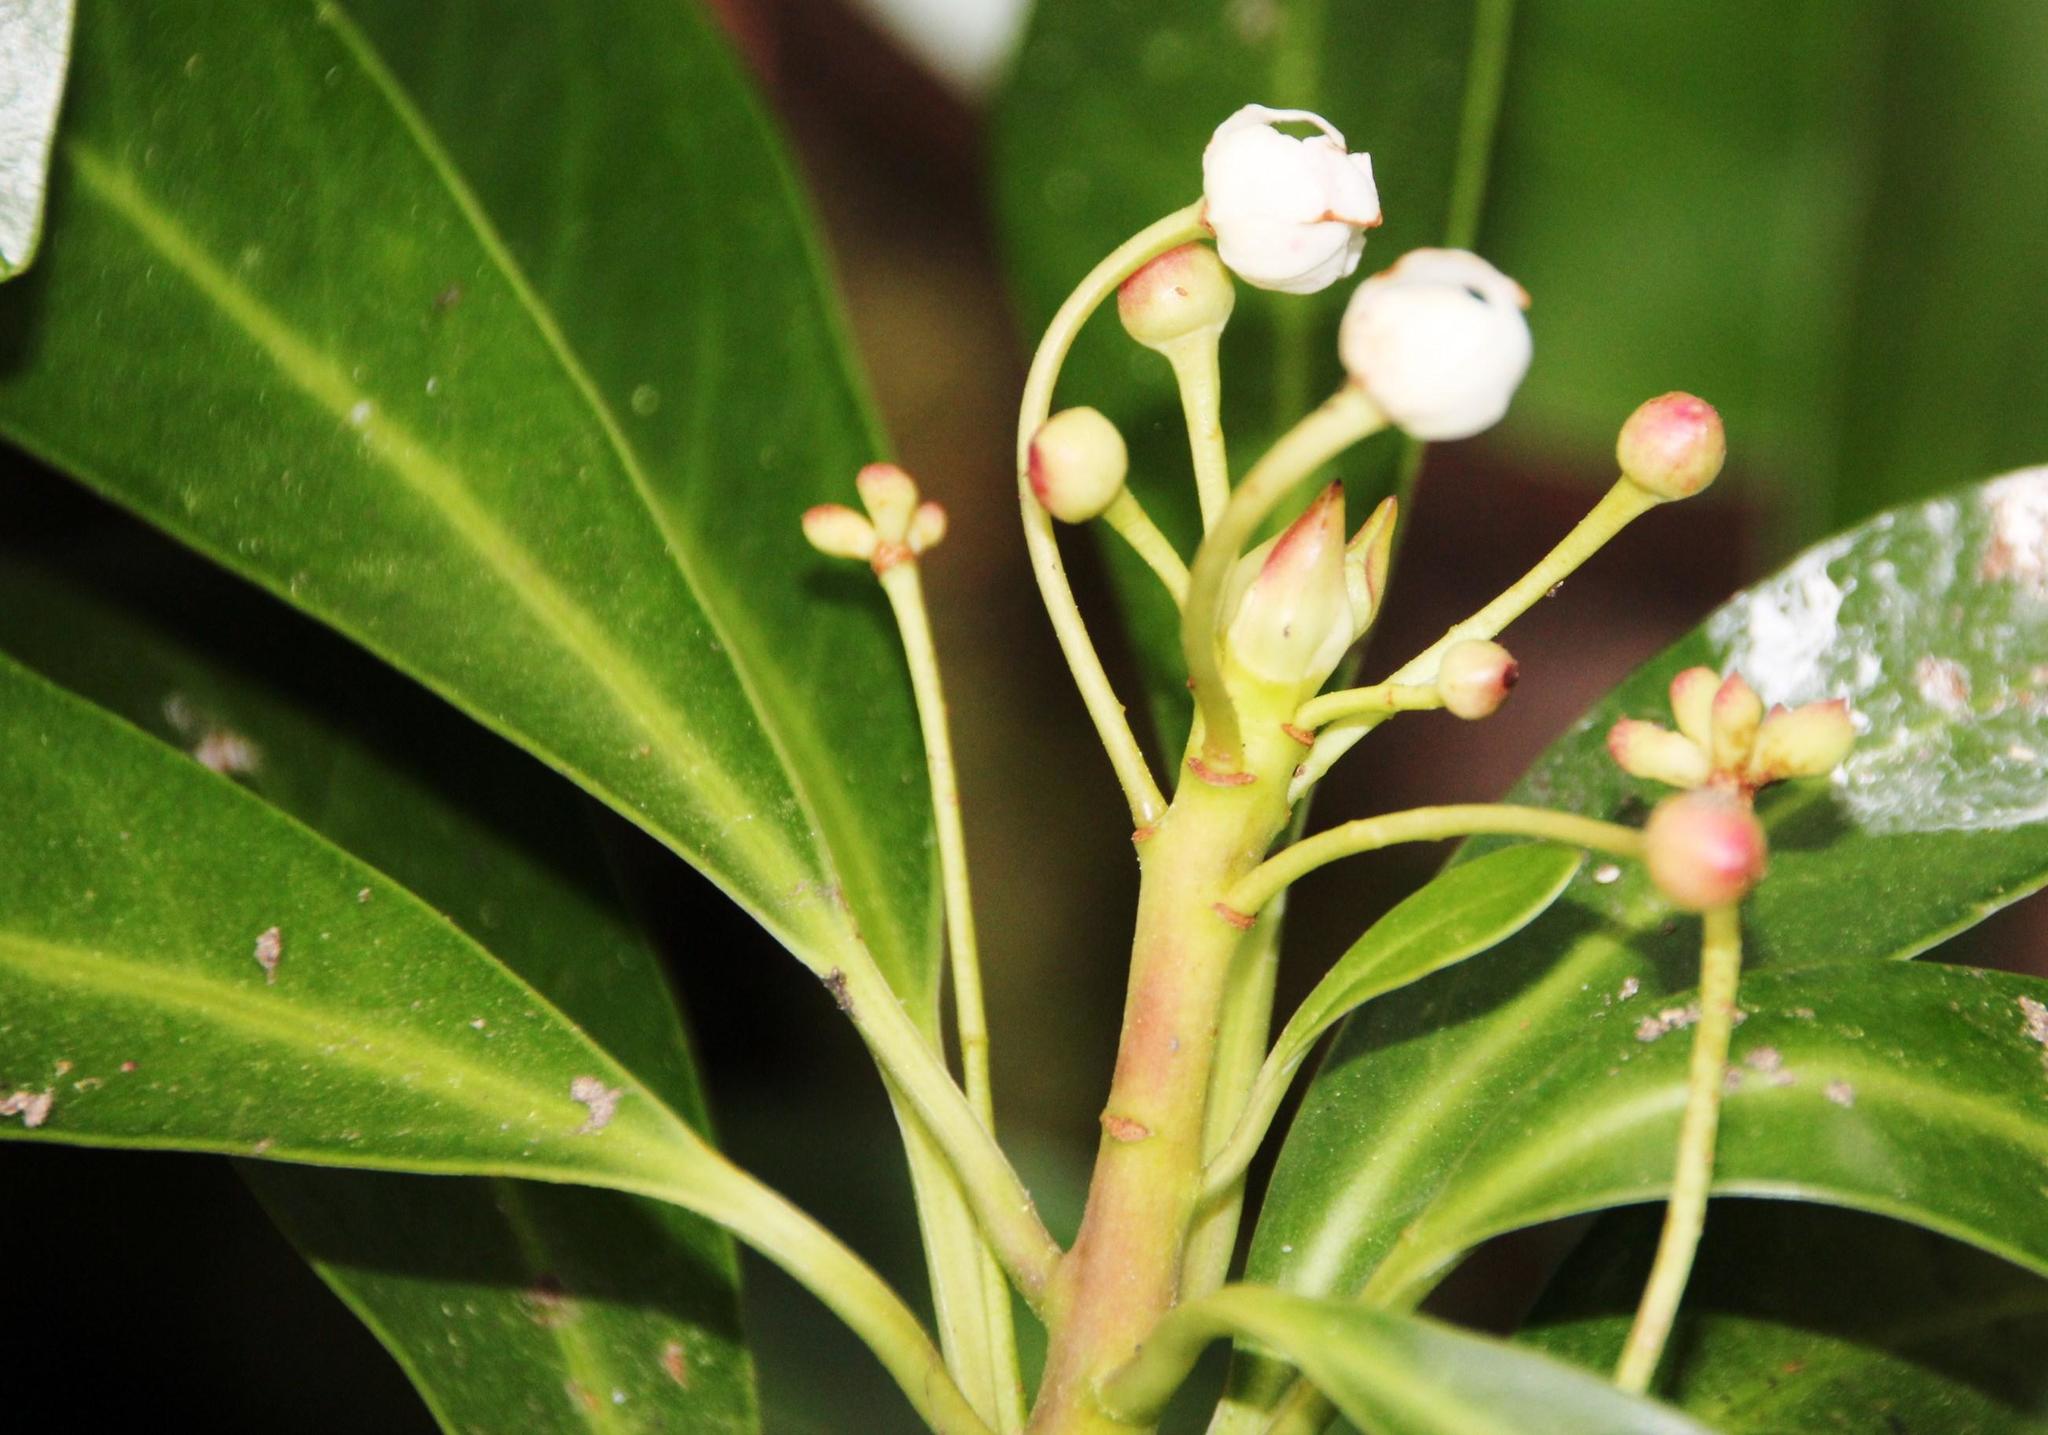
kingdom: Plantae
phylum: Tracheophyta
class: Magnoliopsida
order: Canellales
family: Winteraceae
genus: Drimys
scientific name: Drimys andina
